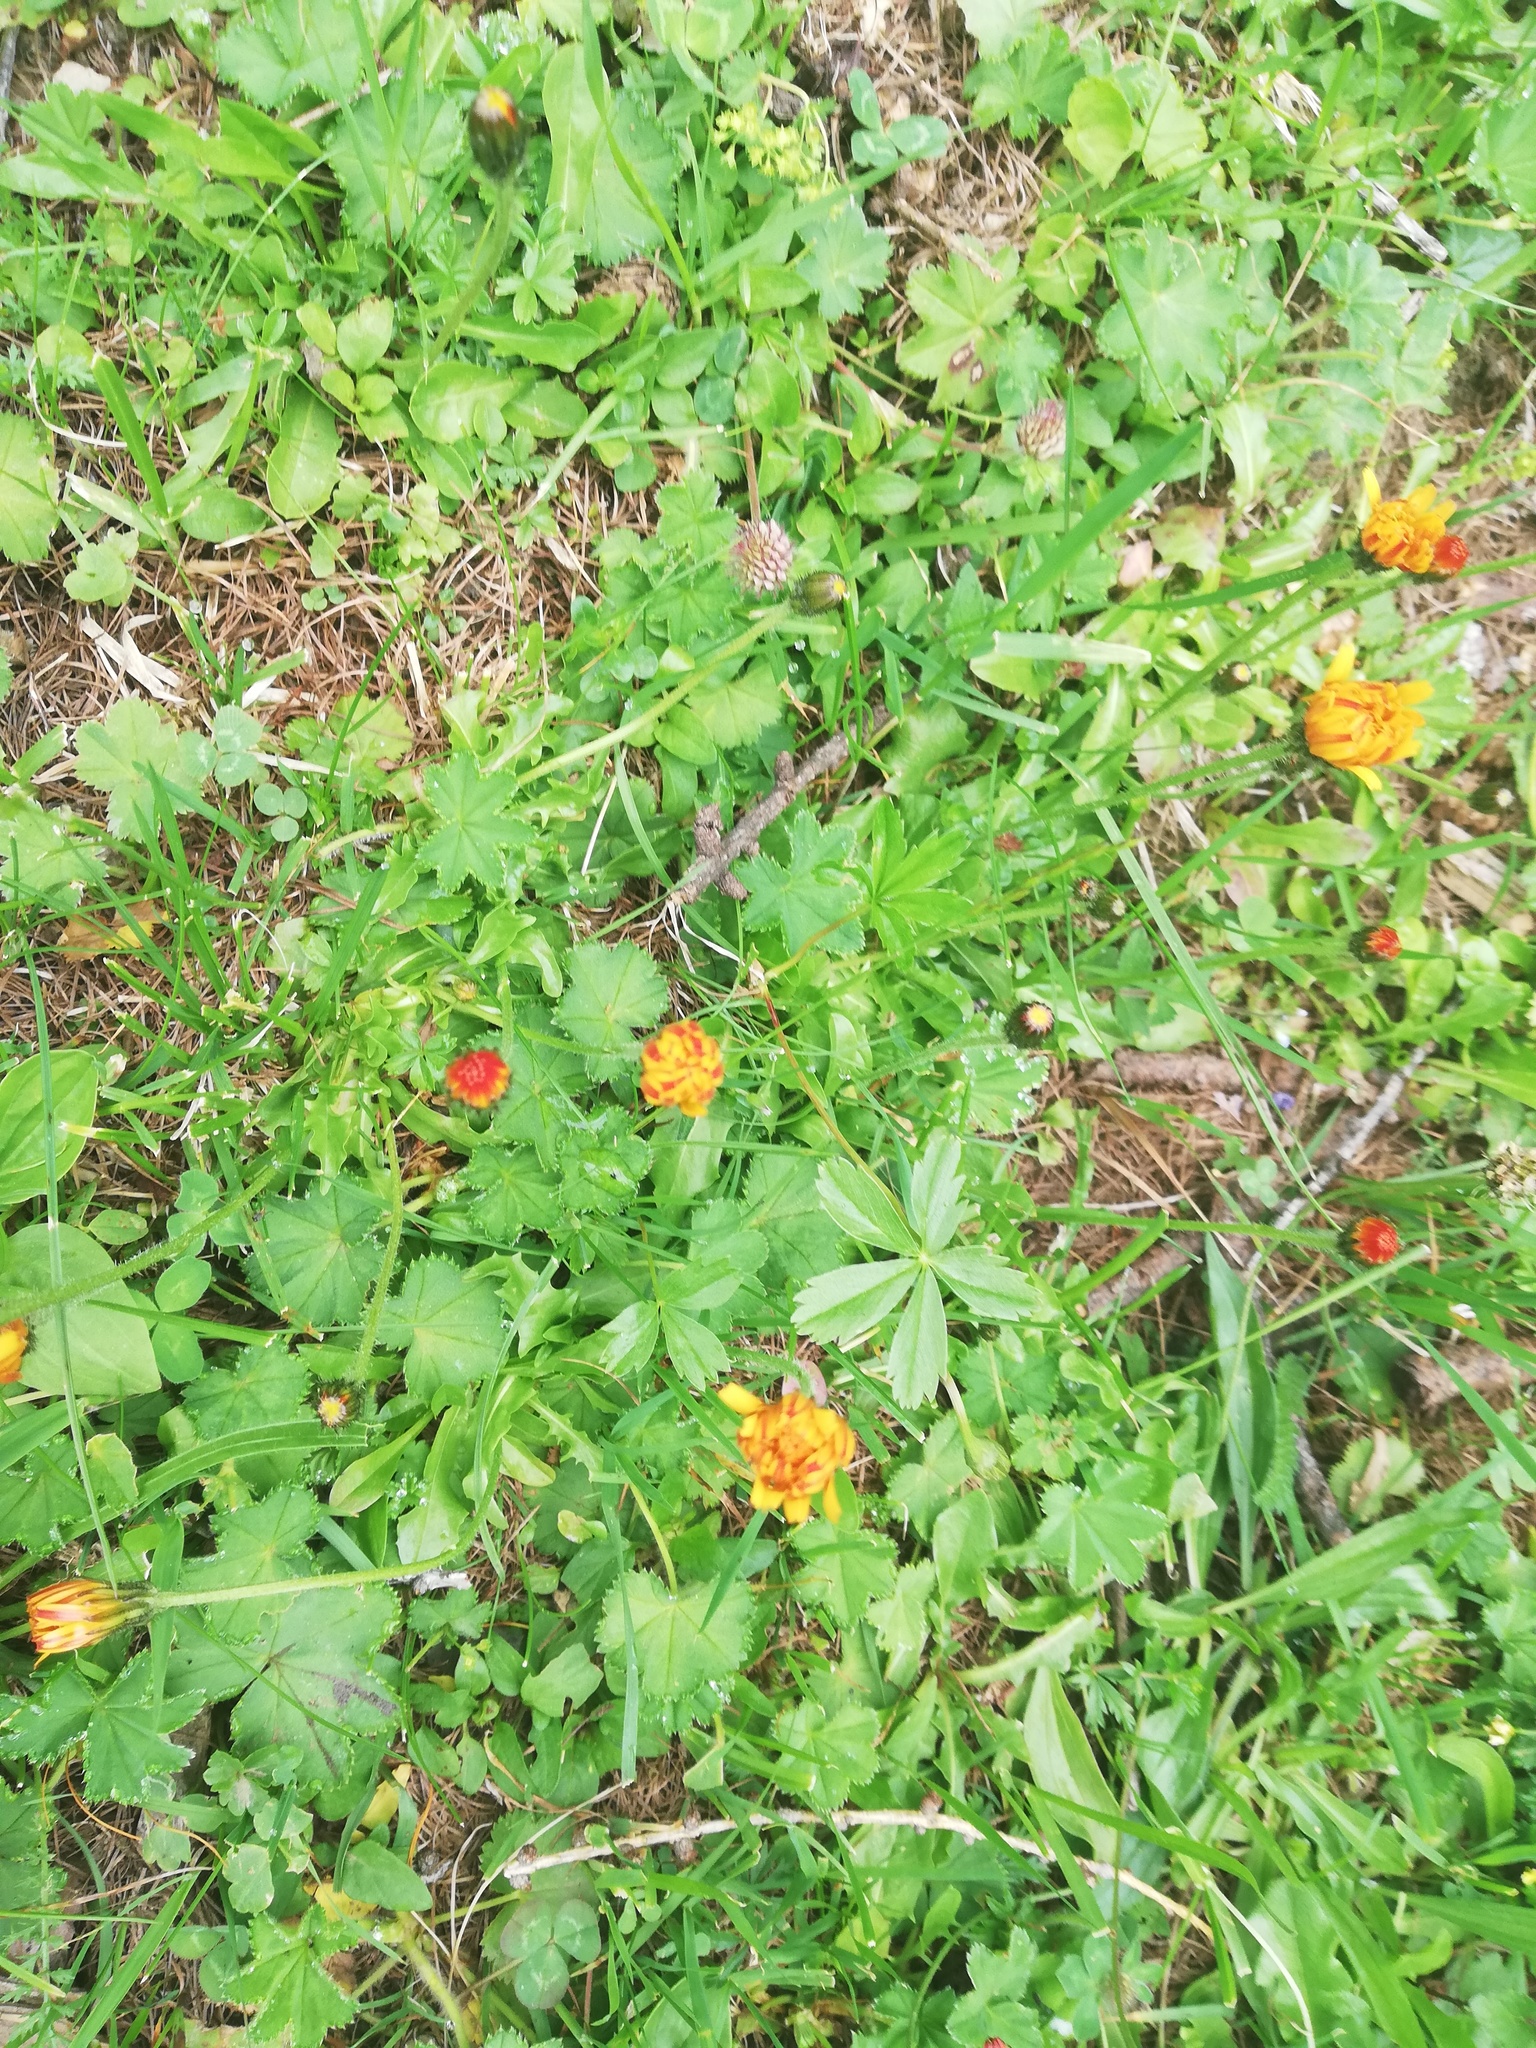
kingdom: Plantae
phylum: Tracheophyta
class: Magnoliopsida
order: Asterales
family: Asteraceae
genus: Crepis
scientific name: Crepis aurea
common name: Golden hawk's-beard
